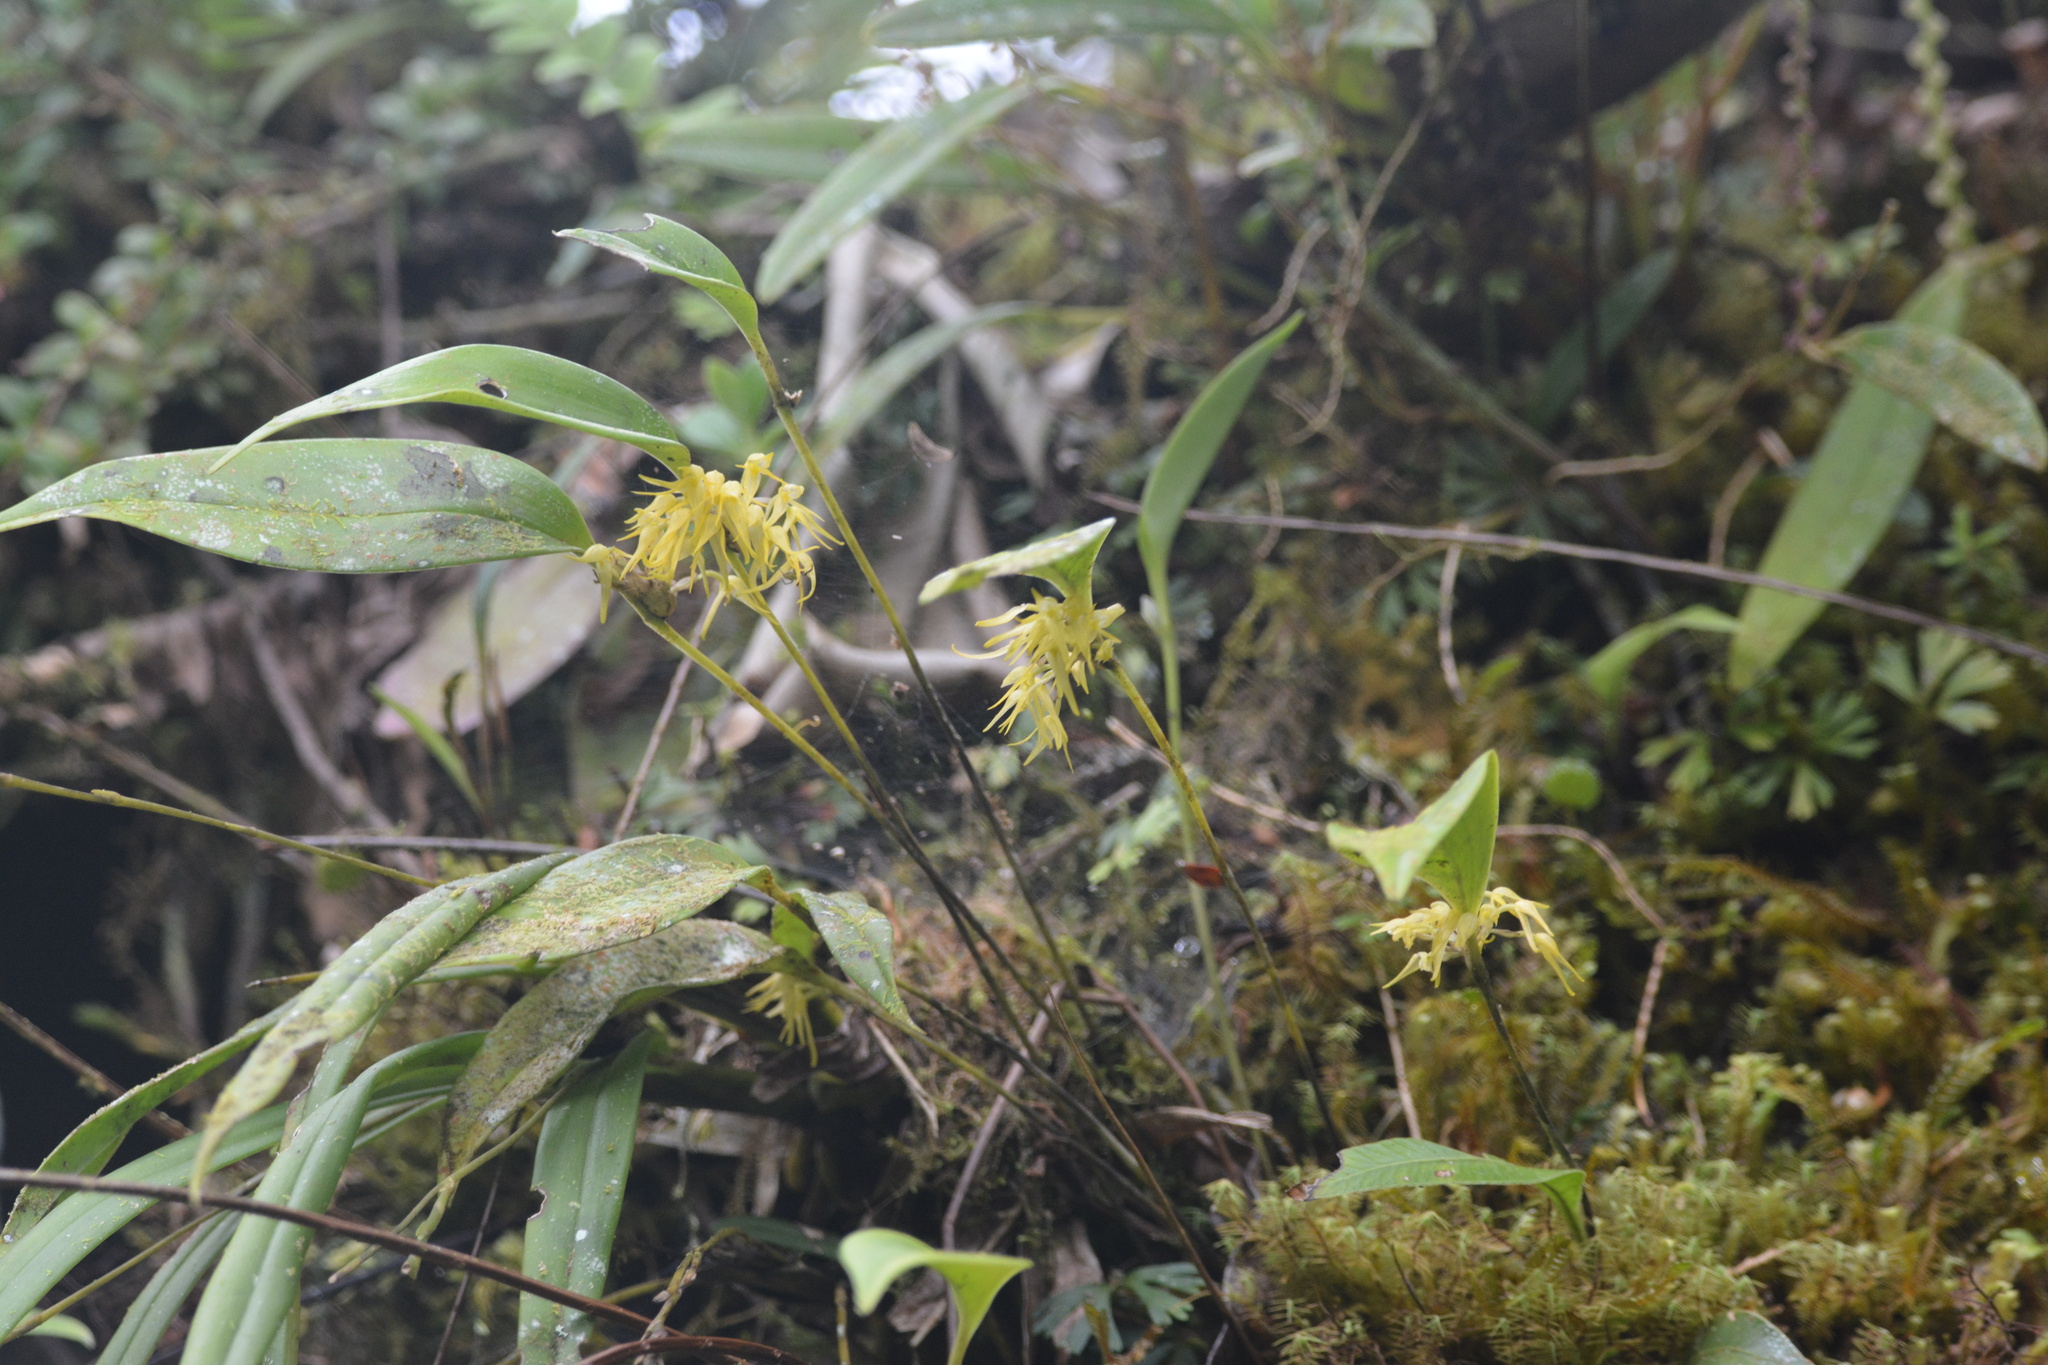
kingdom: Plantae
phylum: Tracheophyta
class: Liliopsida
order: Asparagales
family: Orchidaceae
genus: Pleurothallis
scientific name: Pleurothallis ruscifolia
